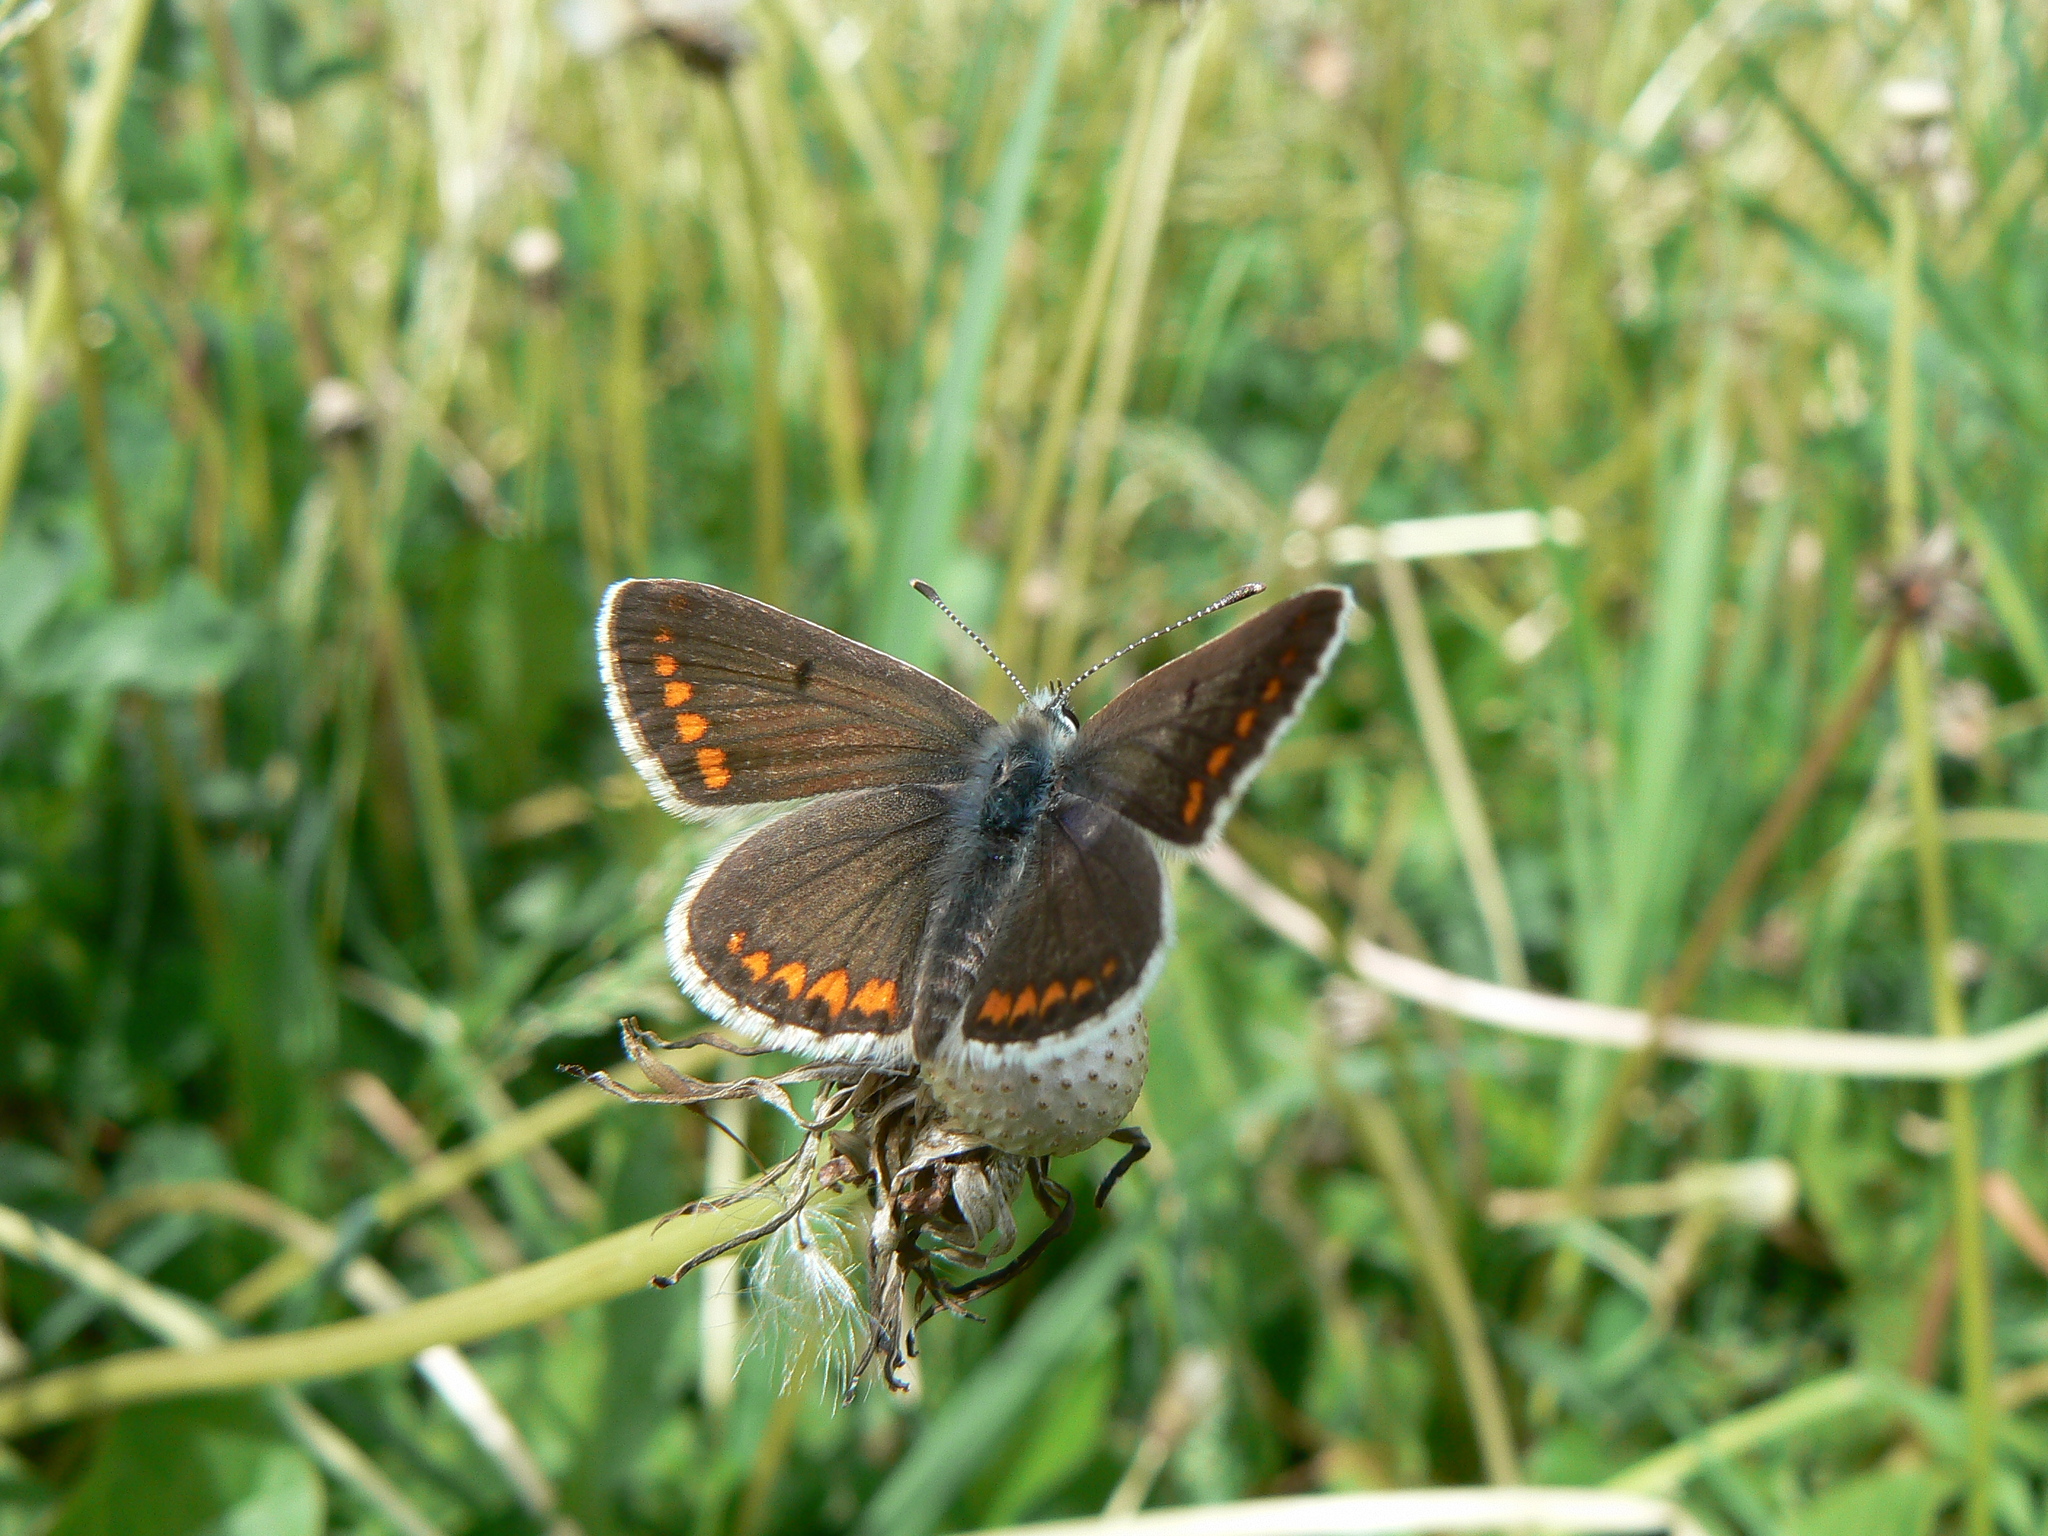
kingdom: Animalia
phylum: Arthropoda
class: Insecta
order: Lepidoptera
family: Lycaenidae
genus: Aricia
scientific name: Aricia agestis
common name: Brown argus
